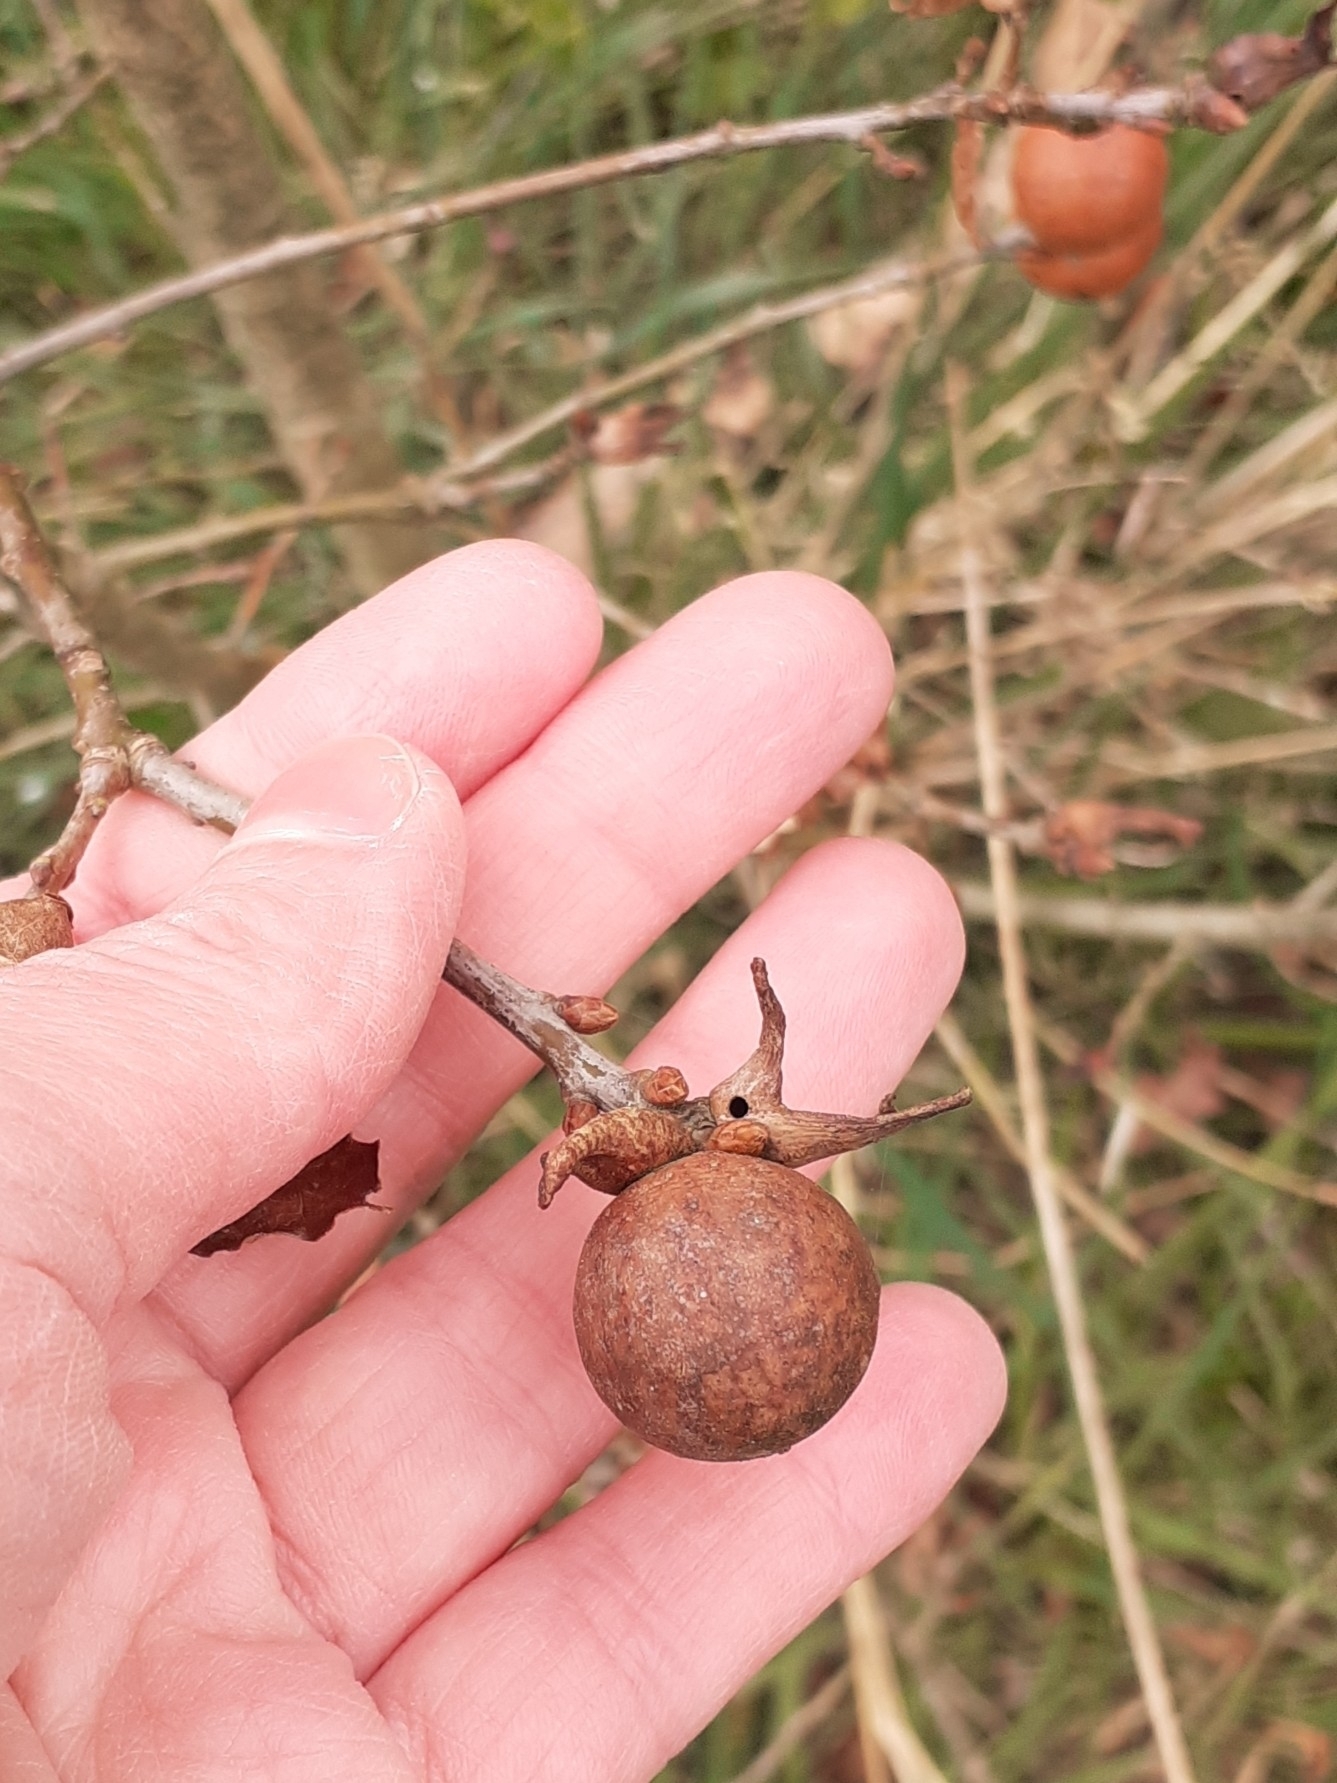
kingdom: Animalia
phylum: Arthropoda
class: Insecta
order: Hymenoptera
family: Cynipidae
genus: Andricus
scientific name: Andricus kollari
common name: Marble gall
